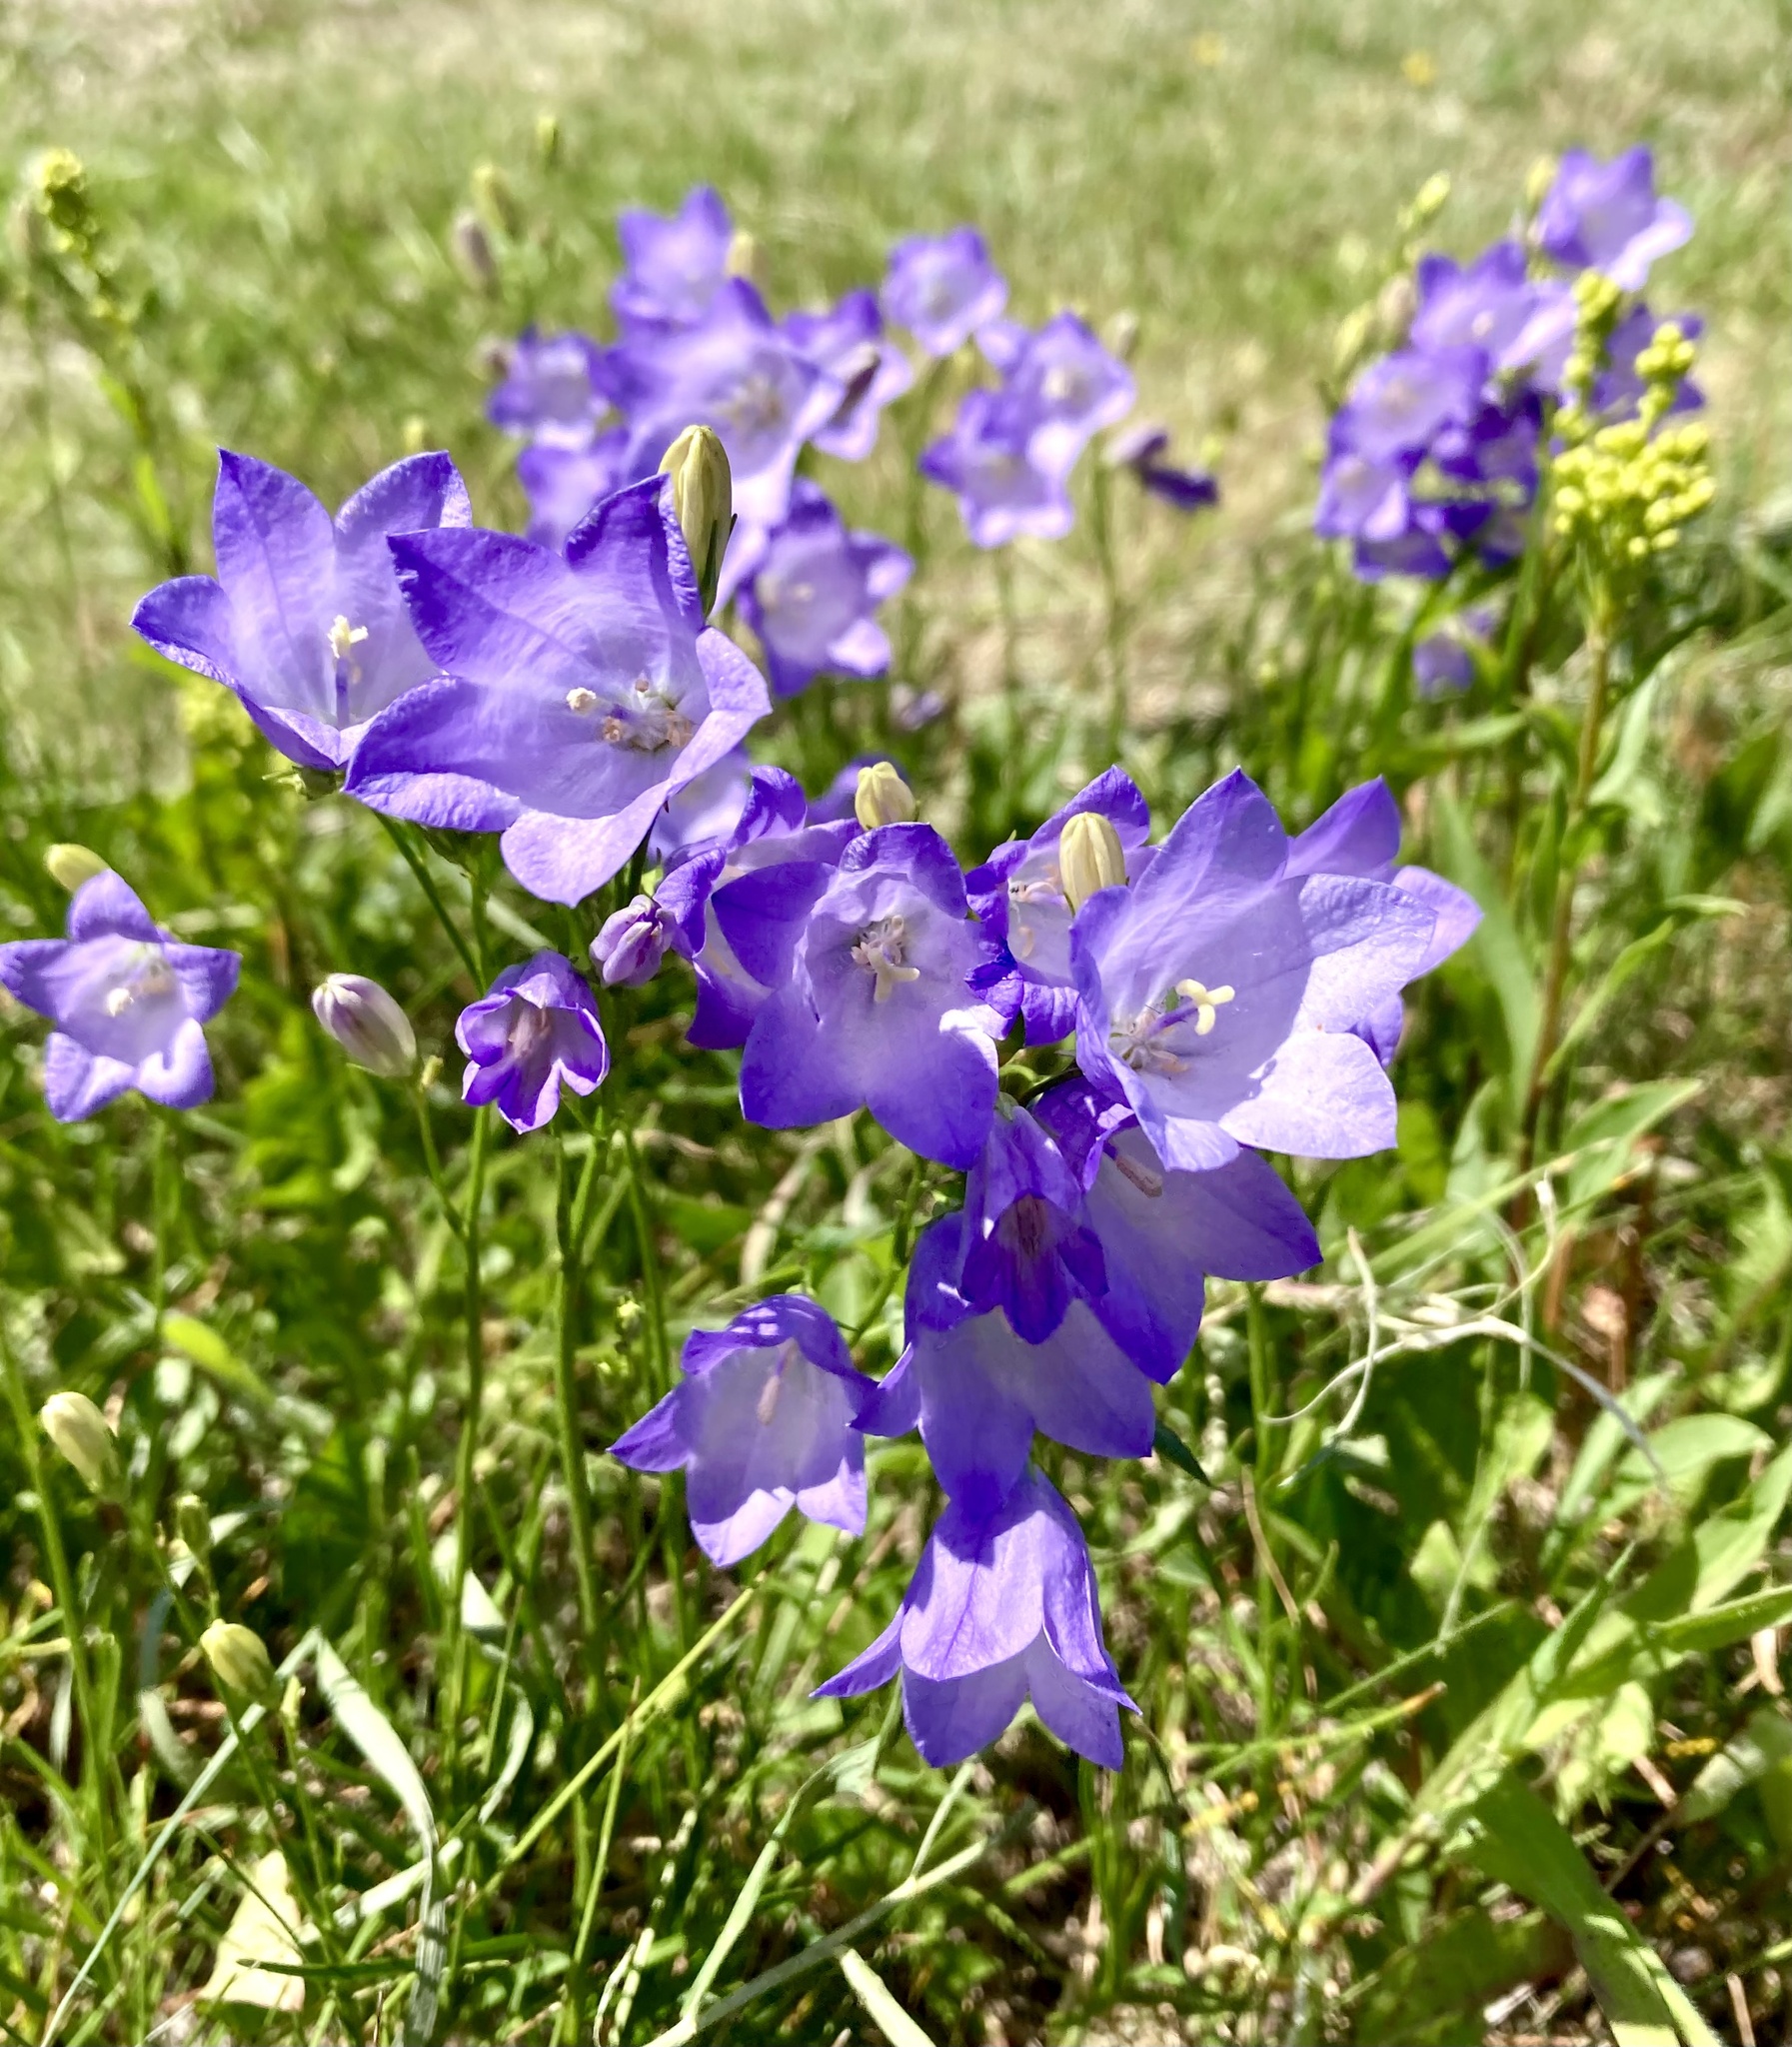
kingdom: Plantae
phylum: Tracheophyta
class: Magnoliopsida
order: Asterales
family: Campanulaceae
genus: Campanula
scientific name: Campanula alaskana
